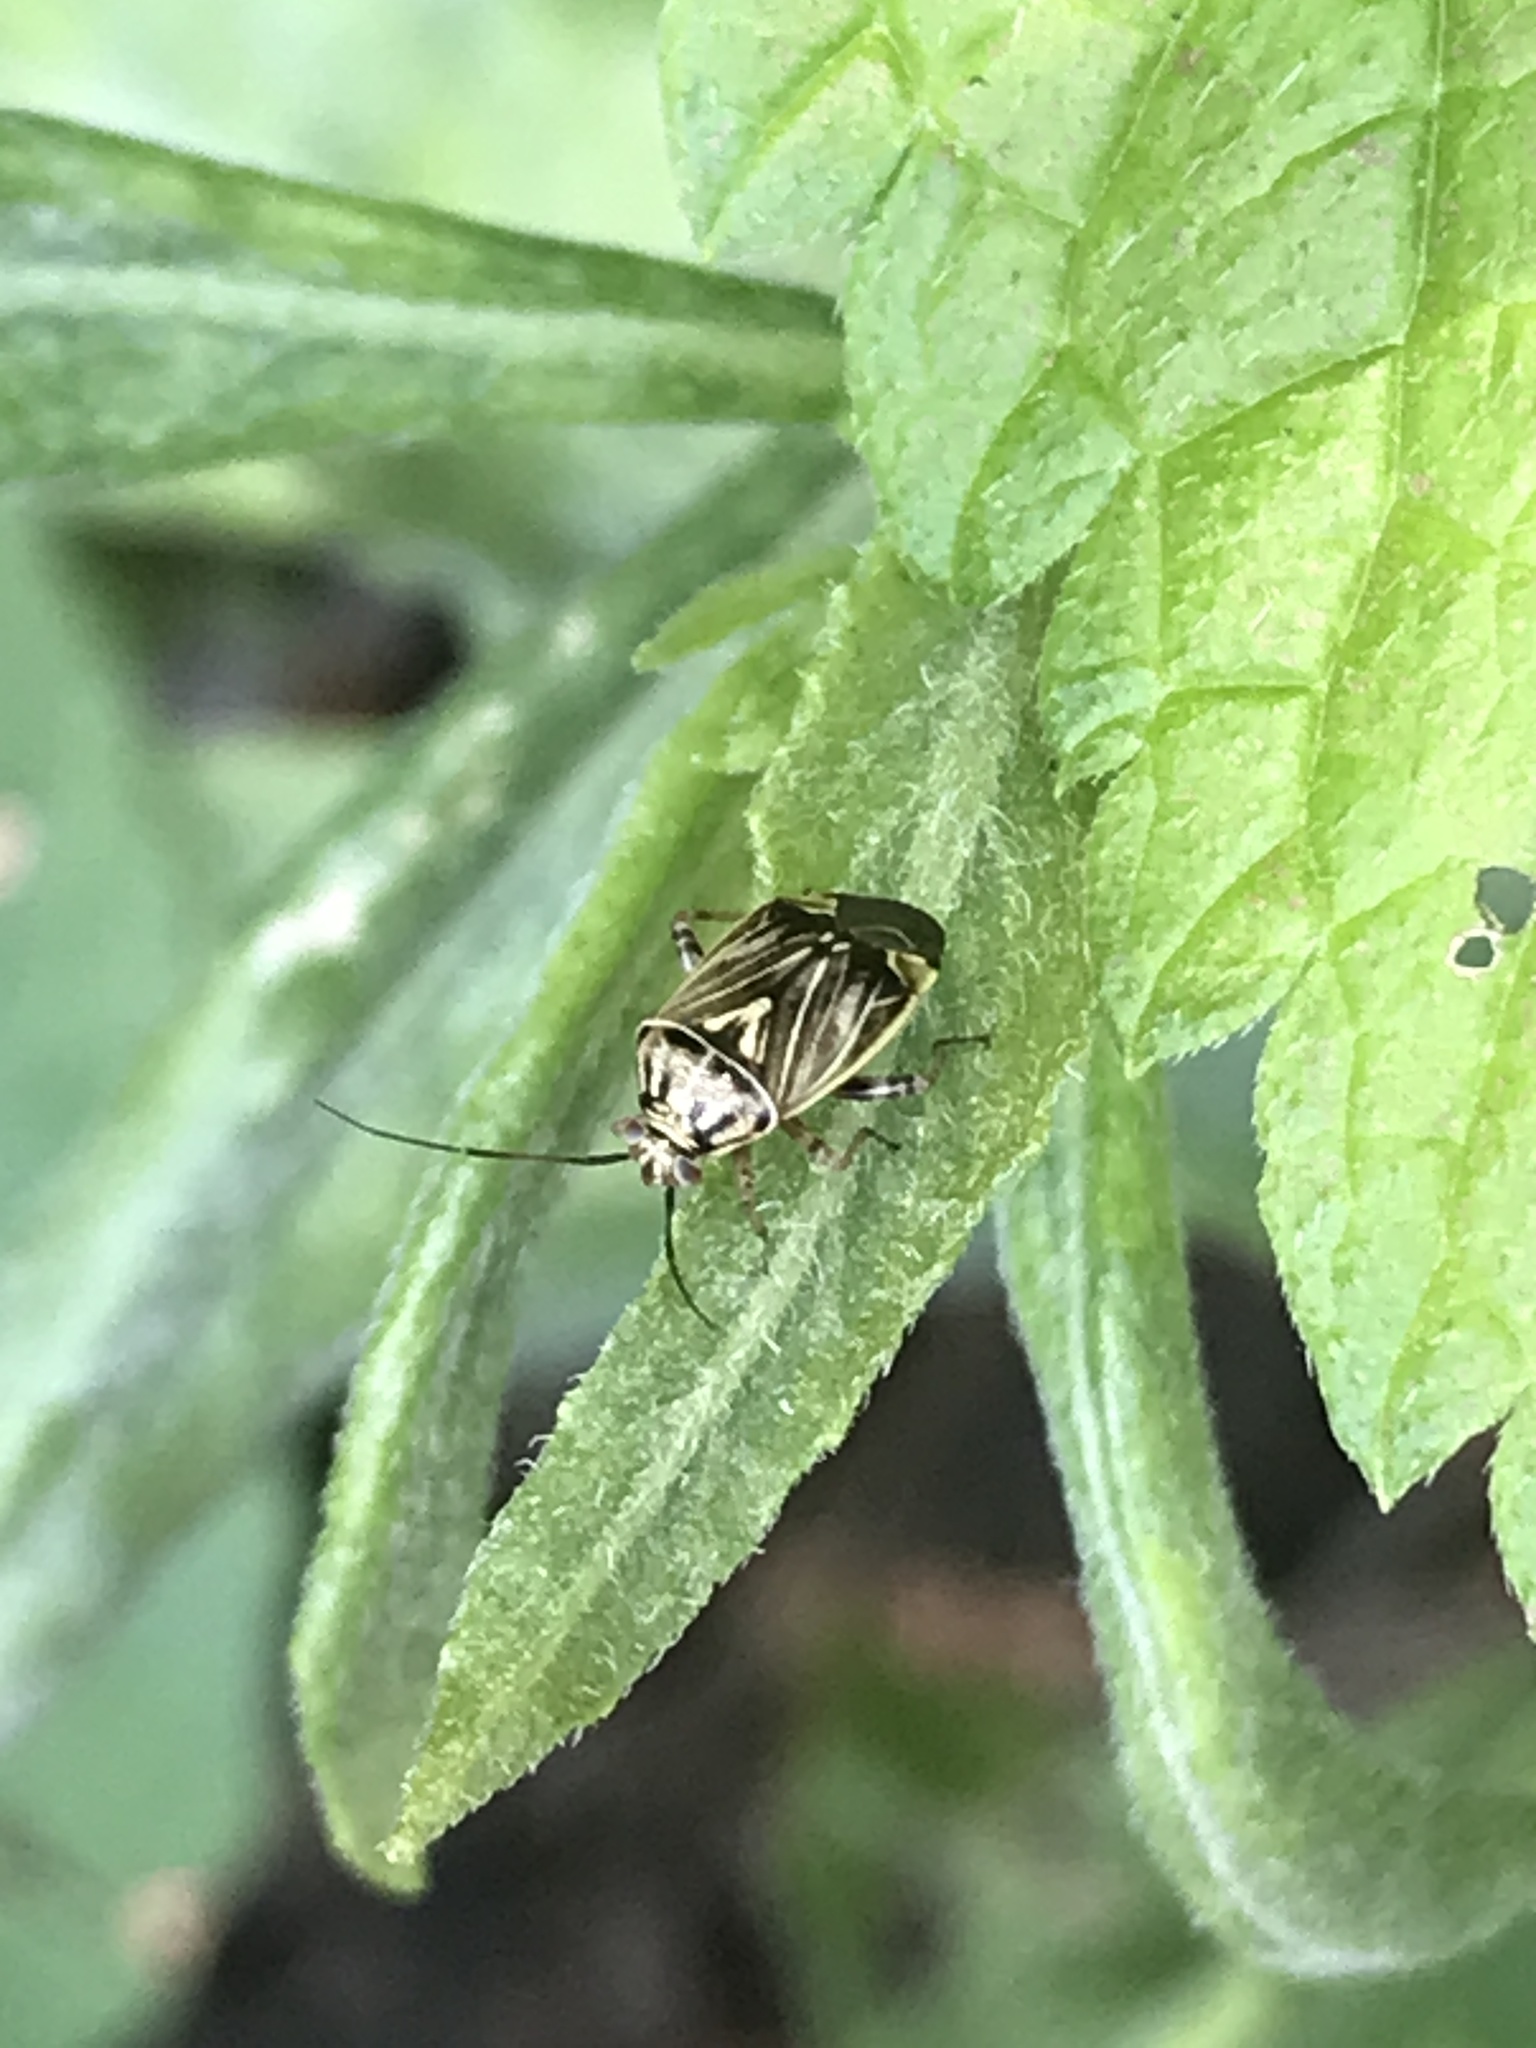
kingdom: Animalia
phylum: Arthropoda
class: Insecta
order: Hemiptera
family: Miridae
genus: Lygus
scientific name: Lygus lineolaris
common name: North american tarnished plant bug
